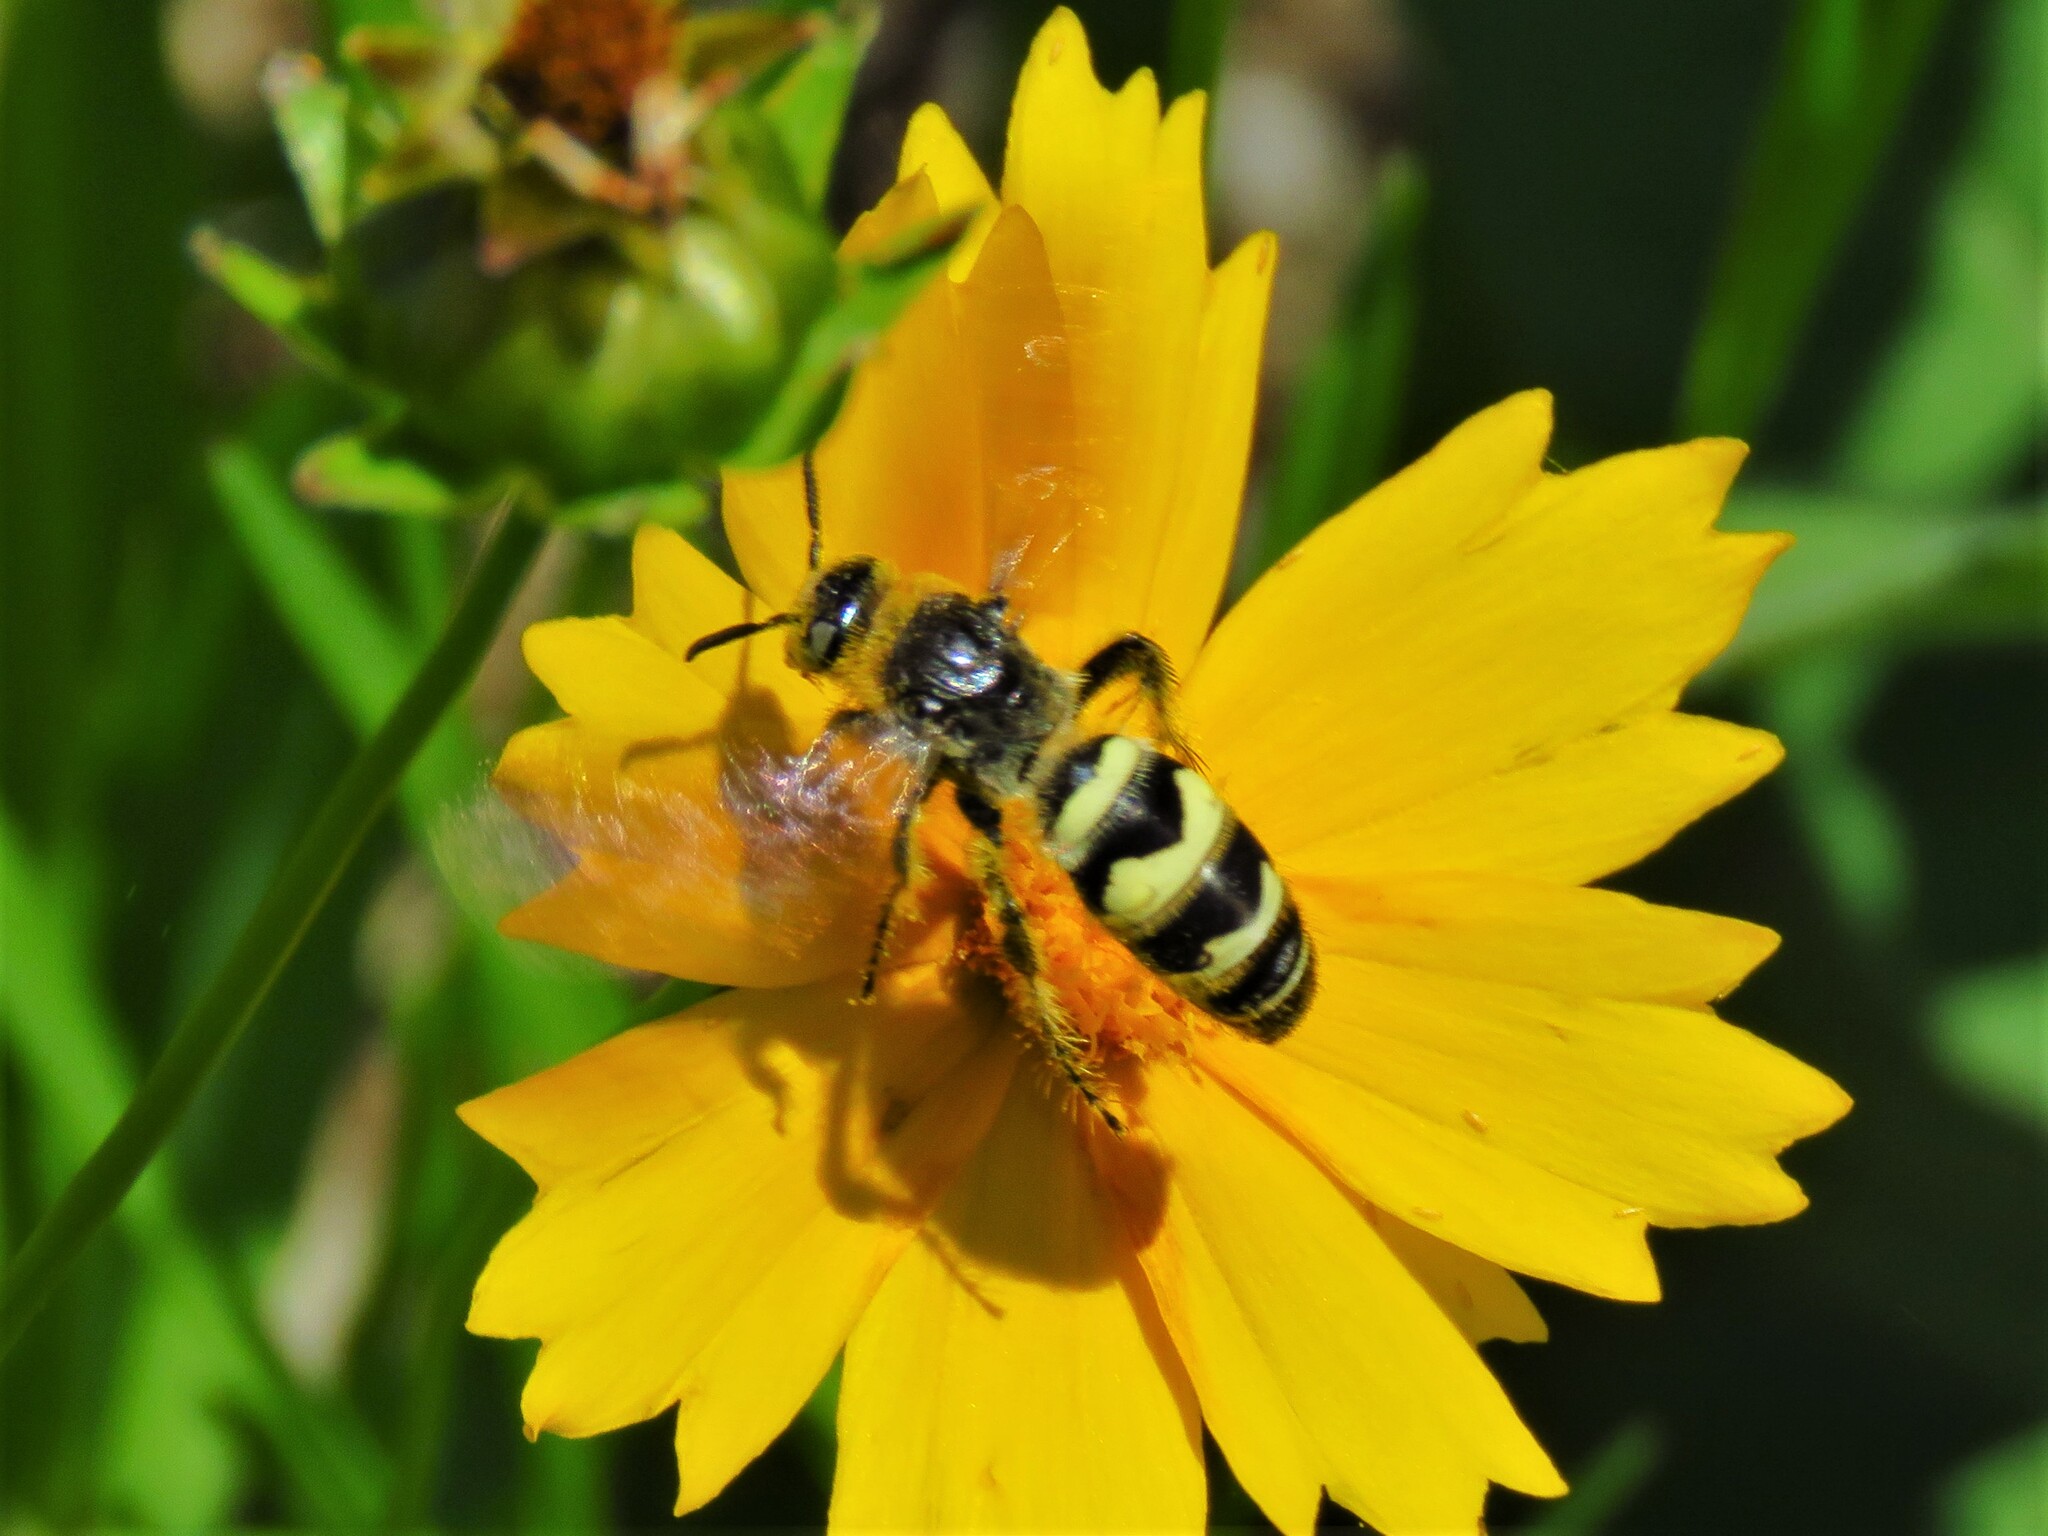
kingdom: Animalia
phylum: Arthropoda
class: Insecta
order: Hymenoptera
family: Scoliidae
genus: Dielis
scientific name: Dielis
